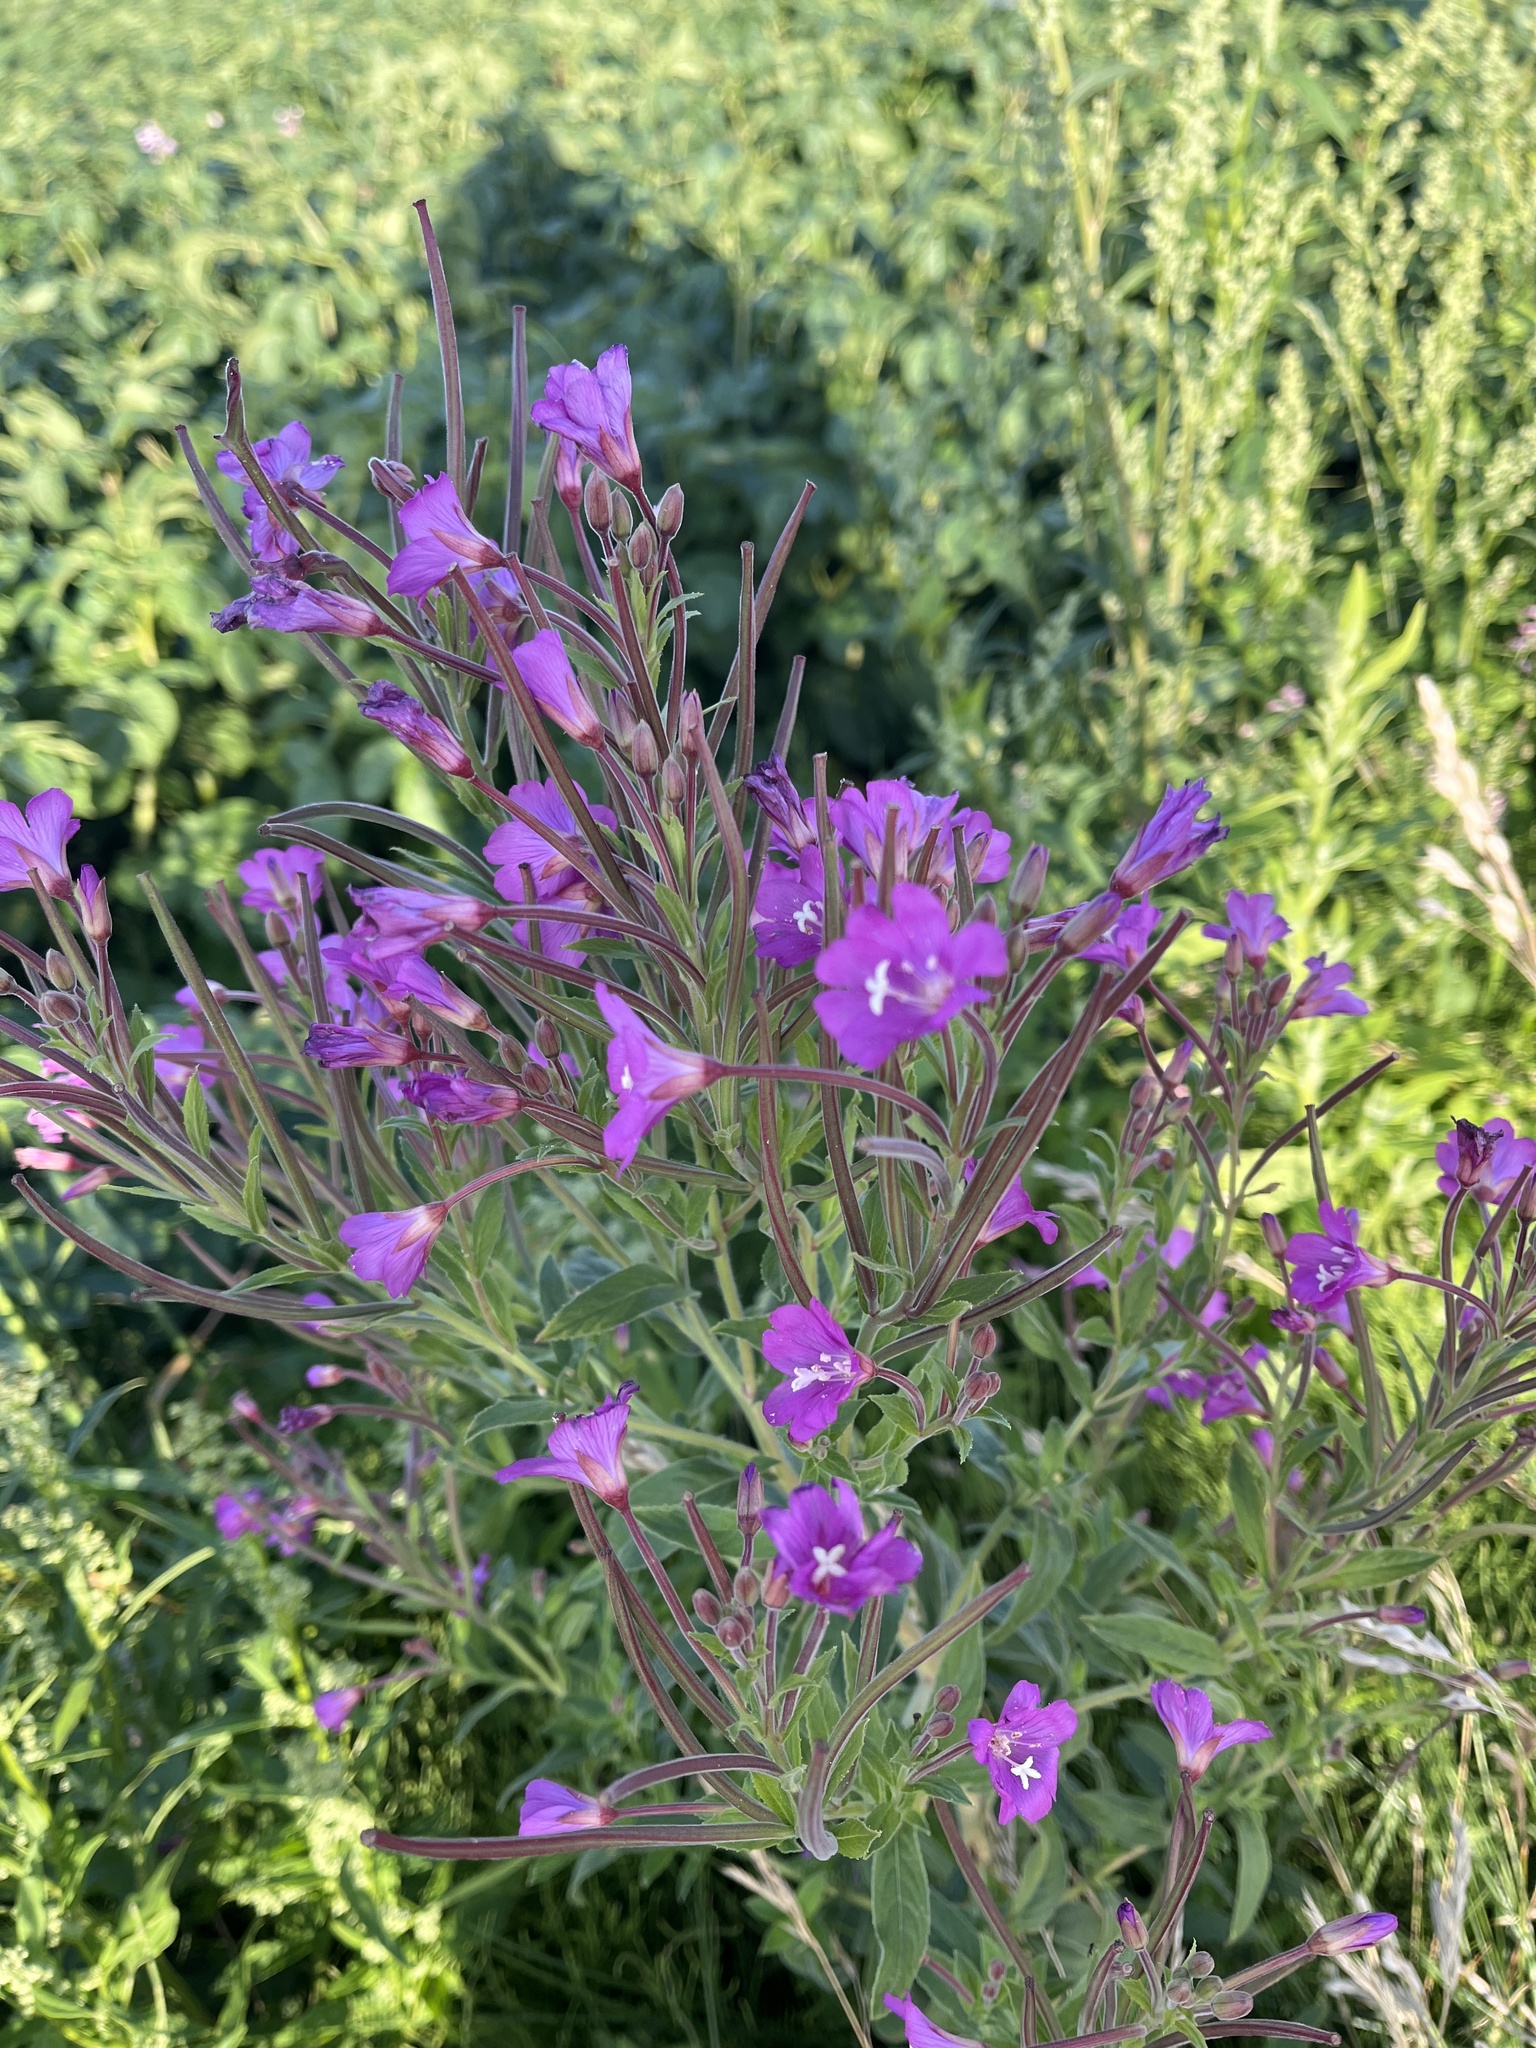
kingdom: Plantae
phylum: Tracheophyta
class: Magnoliopsida
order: Myrtales
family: Onagraceae
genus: Epilobium
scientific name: Epilobium hirsutum
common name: Great willowherb
